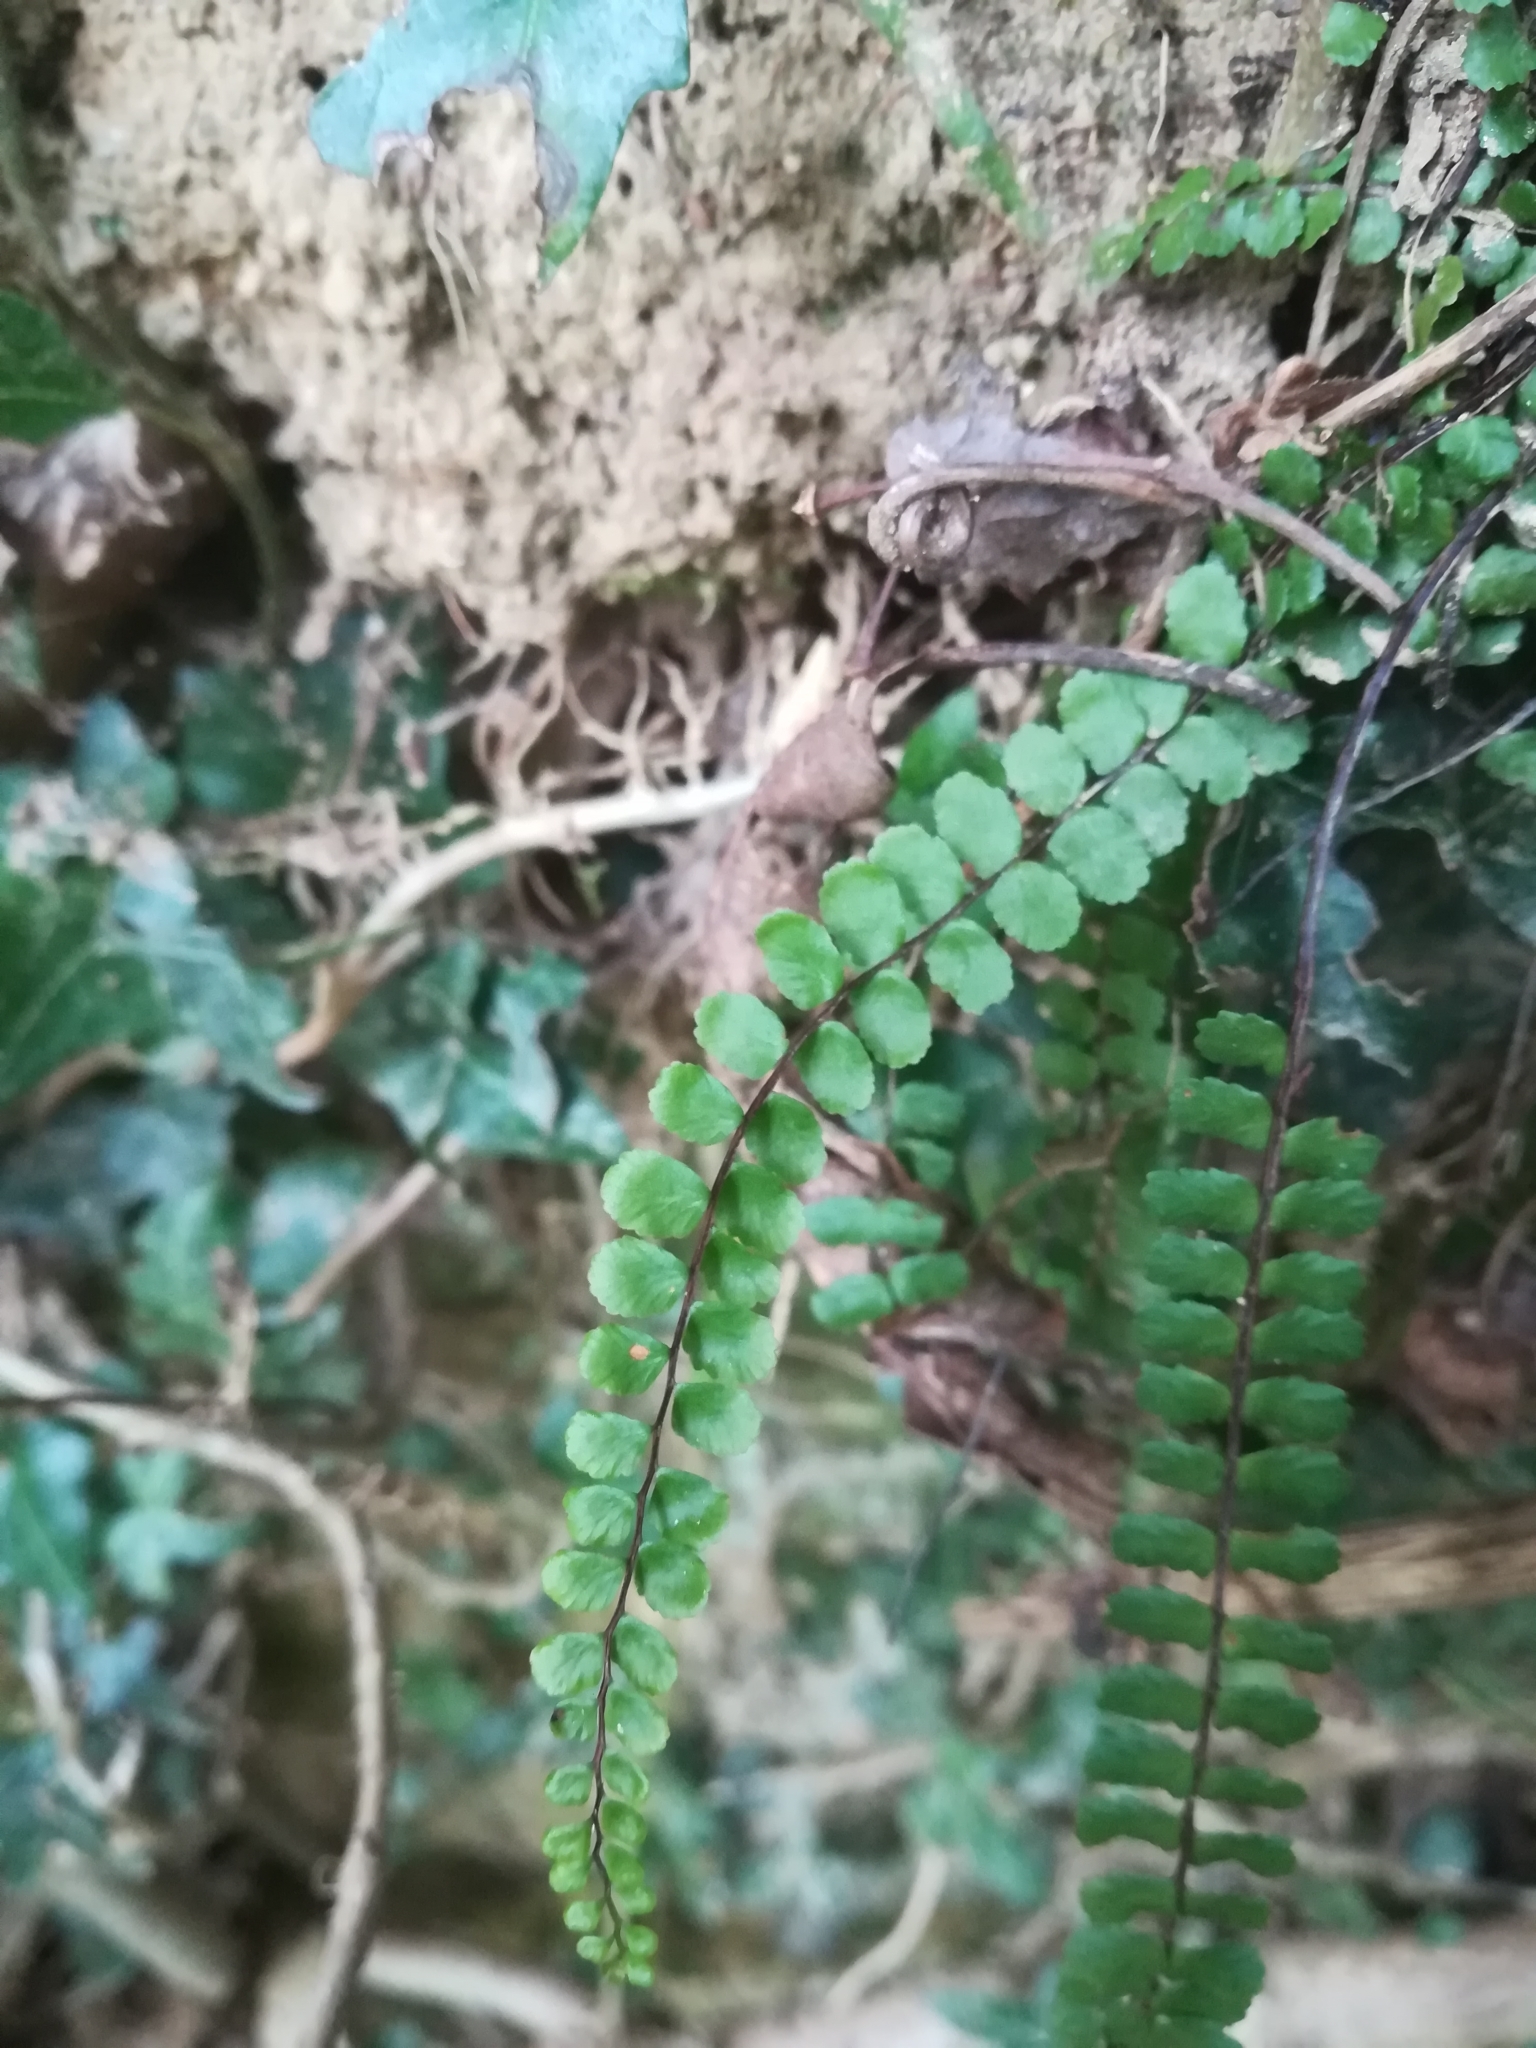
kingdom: Plantae
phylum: Tracheophyta
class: Polypodiopsida
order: Polypodiales
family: Aspleniaceae
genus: Asplenium
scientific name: Asplenium trichomanes
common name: Maidenhair spleenwort
